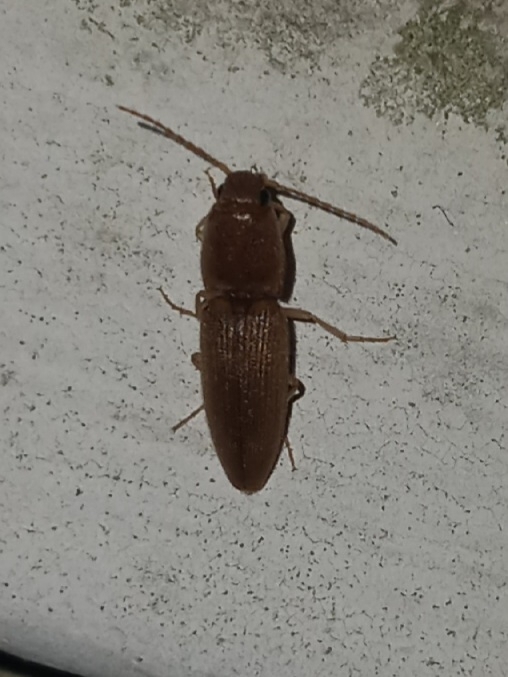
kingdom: Animalia
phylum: Arthropoda
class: Insecta
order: Coleoptera
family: Elateridae
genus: Monocrepidius
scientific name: Monocrepidius scissus
